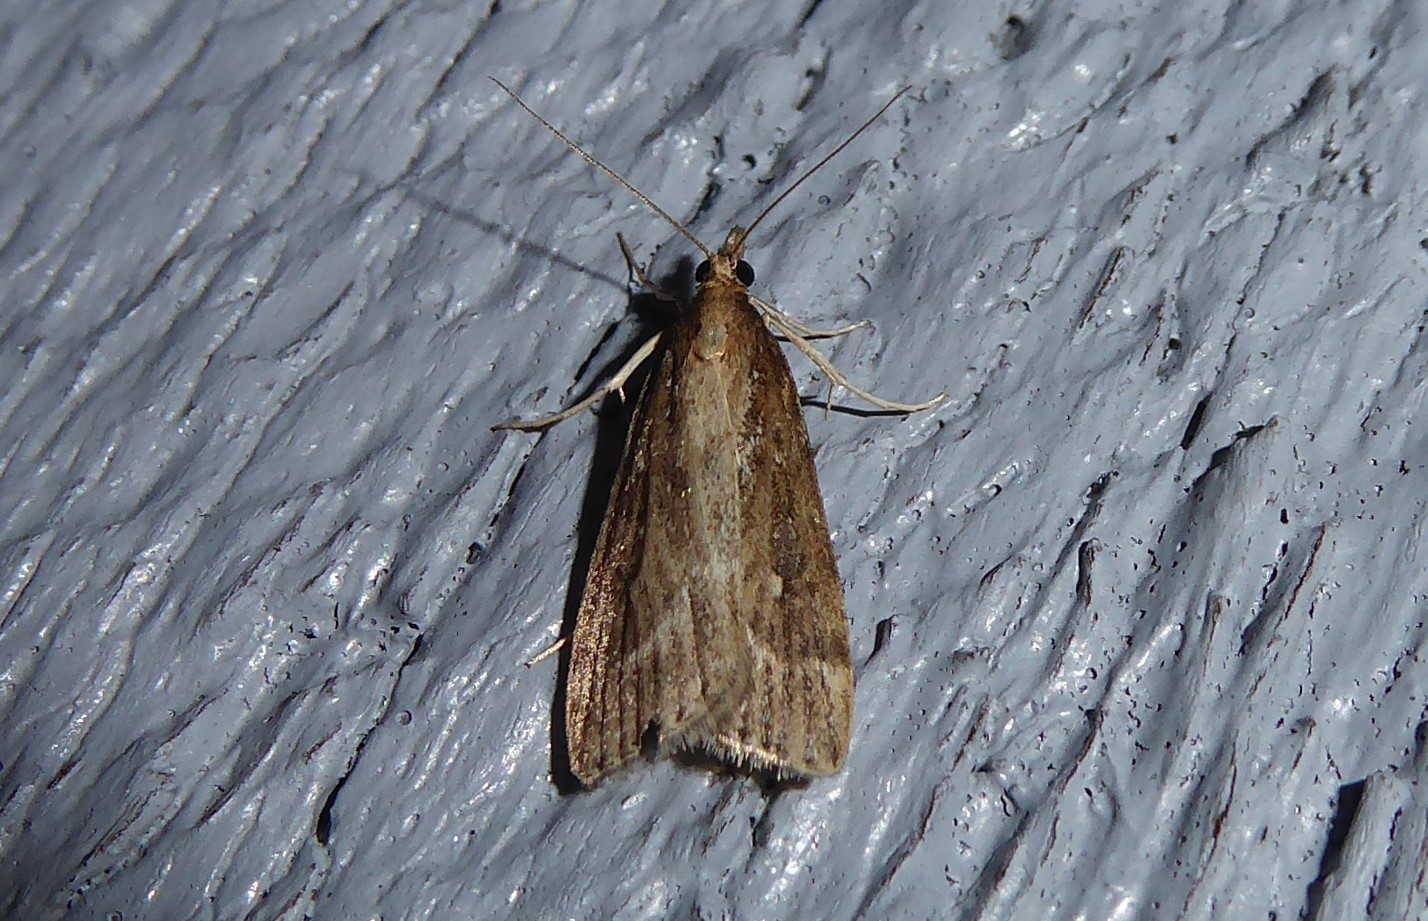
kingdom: Animalia
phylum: Arthropoda
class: Insecta
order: Lepidoptera
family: Crambidae
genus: Eudonia
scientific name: Eudonia octophora
